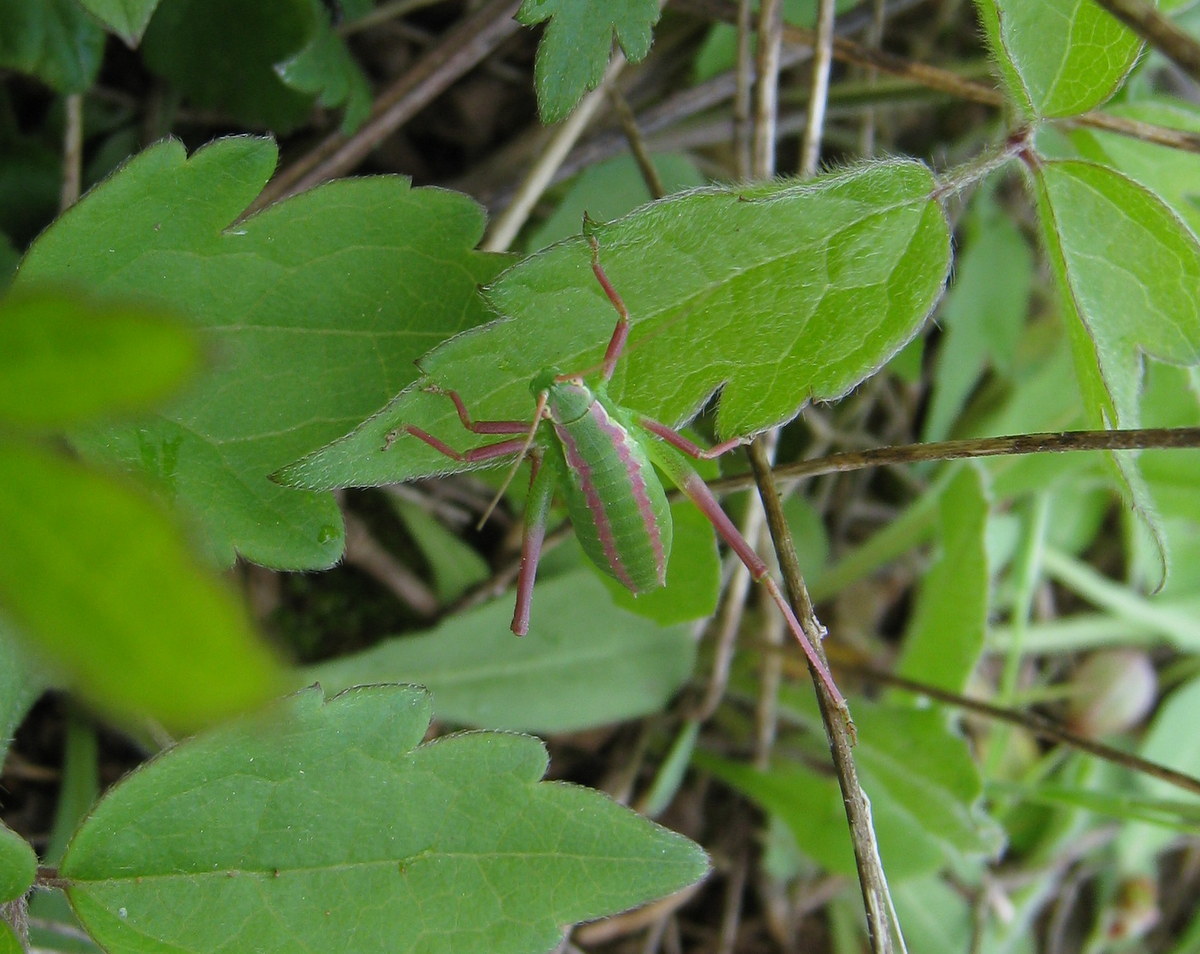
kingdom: Animalia
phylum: Arthropoda
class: Insecta
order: Orthoptera
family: Tettigoniidae
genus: Isophya
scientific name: Isophya pyrenaea
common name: Pyrenean plump bush-cricket
